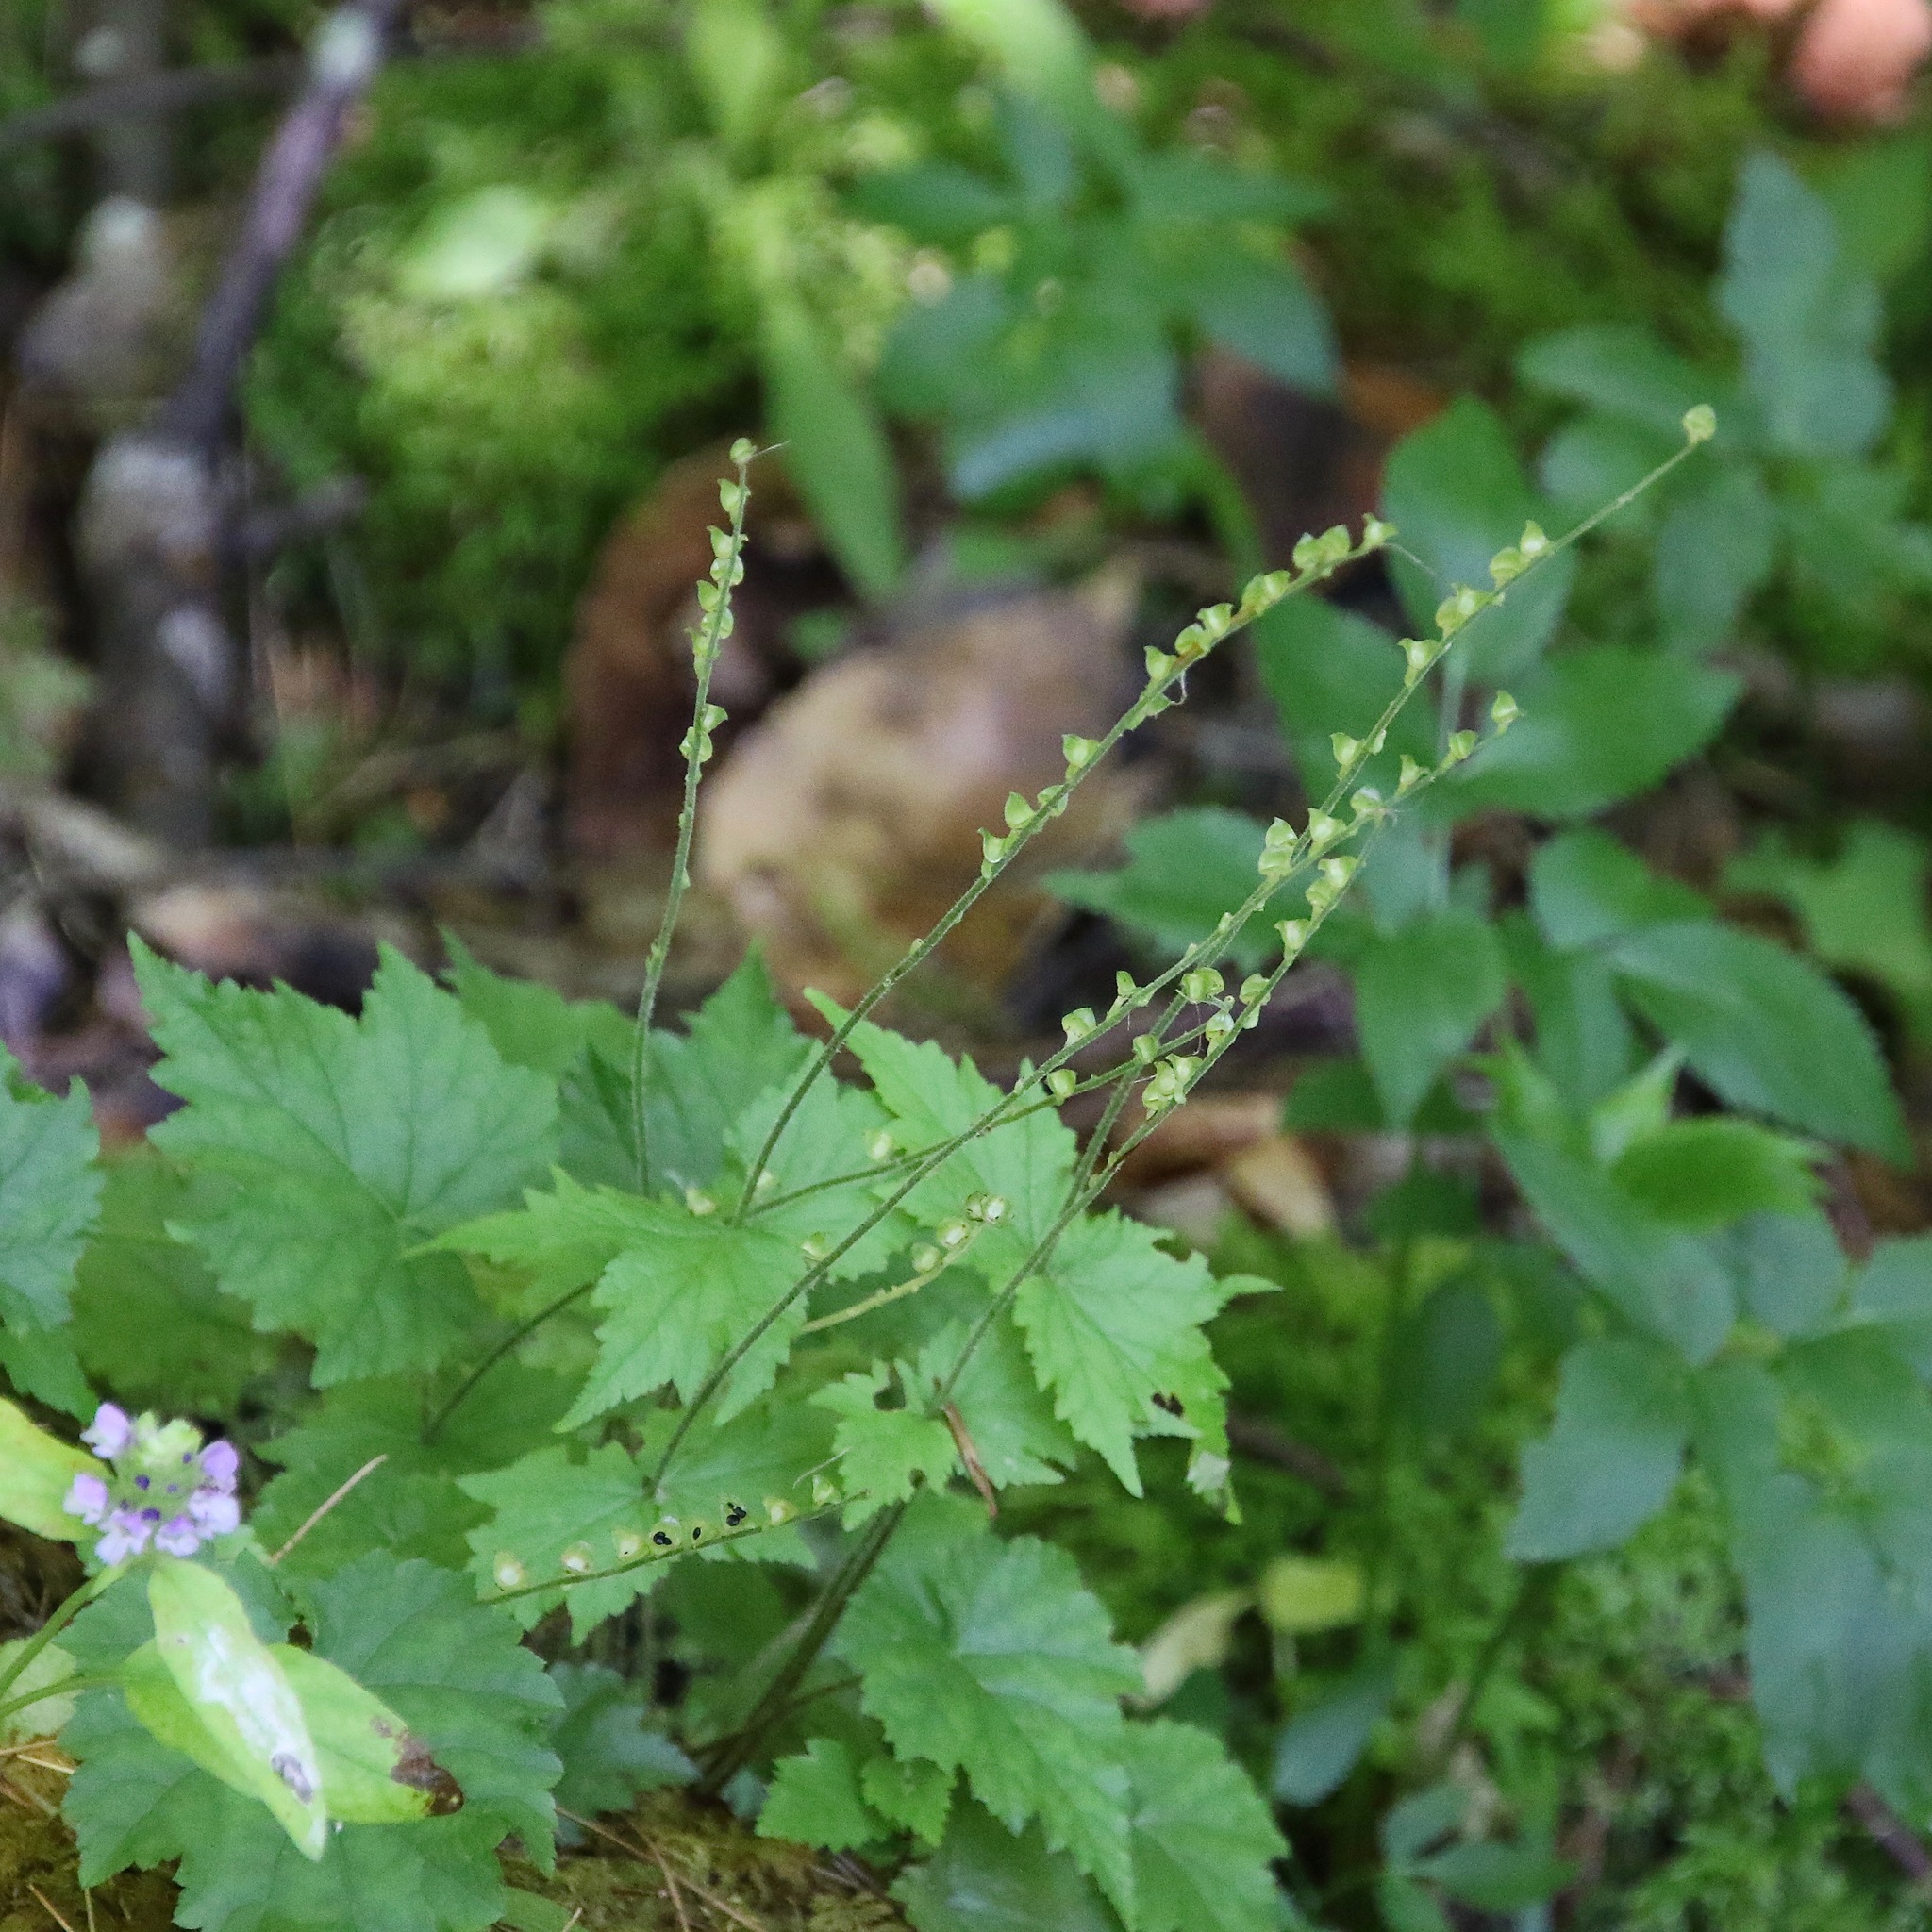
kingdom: Plantae
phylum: Tracheophyta
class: Magnoliopsida
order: Saxifragales
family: Saxifragaceae
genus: Mitella
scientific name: Mitella diphylla
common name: Coolwort
